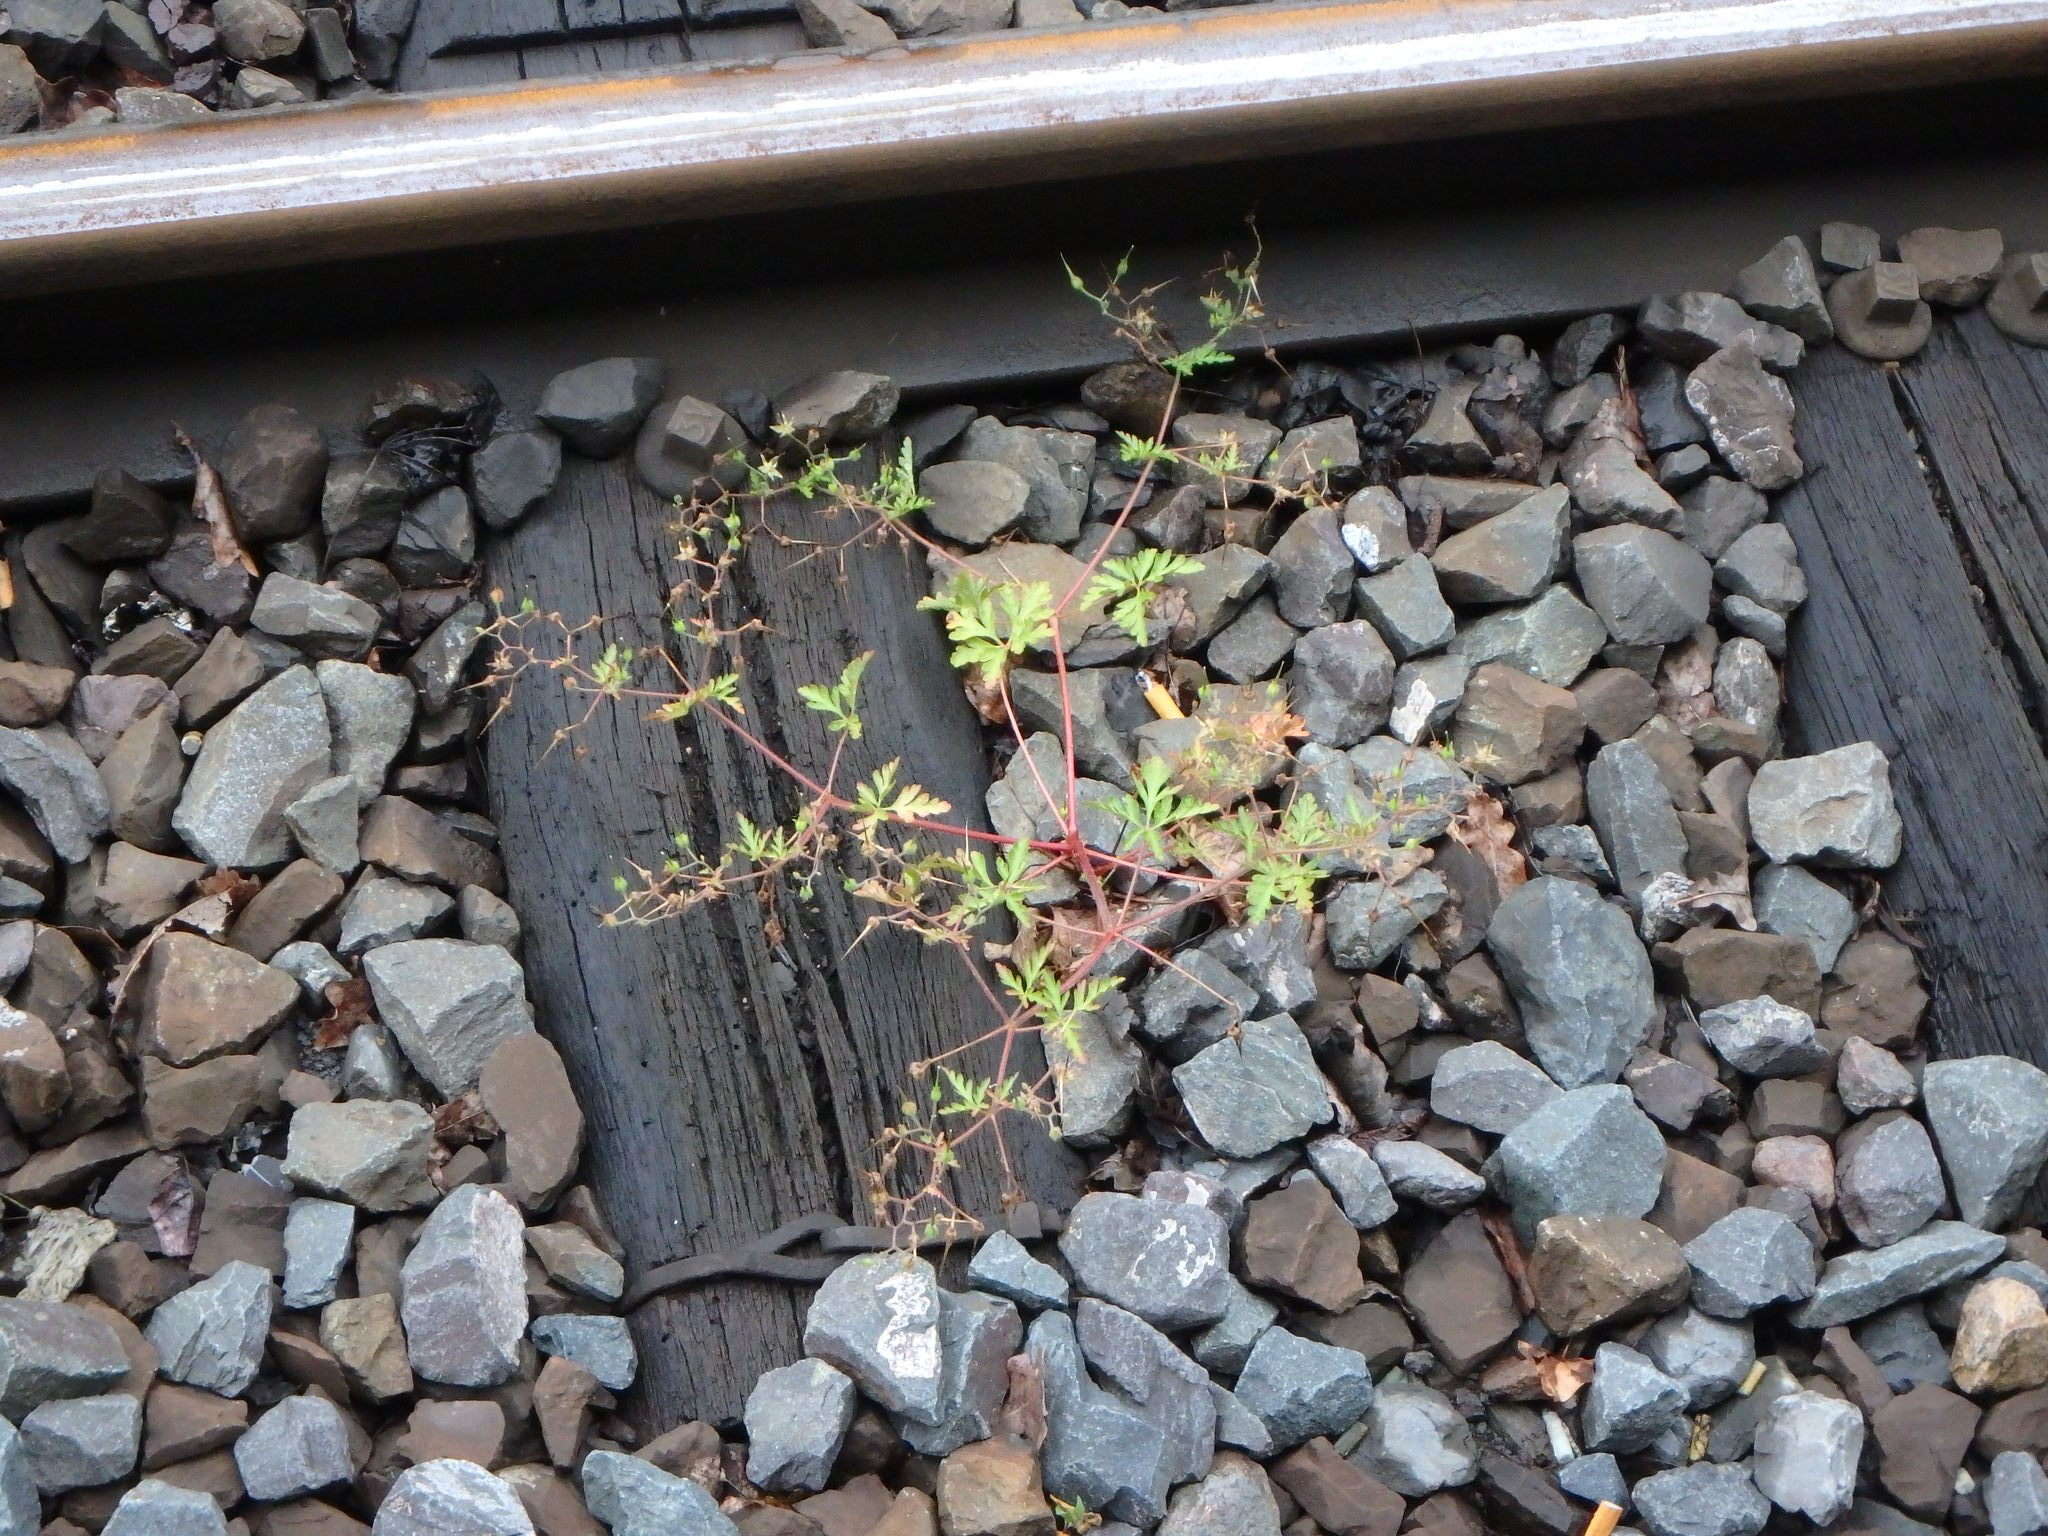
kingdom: Plantae
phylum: Tracheophyta
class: Magnoliopsida
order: Geraniales
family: Geraniaceae
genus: Geranium
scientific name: Geranium robertianum
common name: Herb-robert
